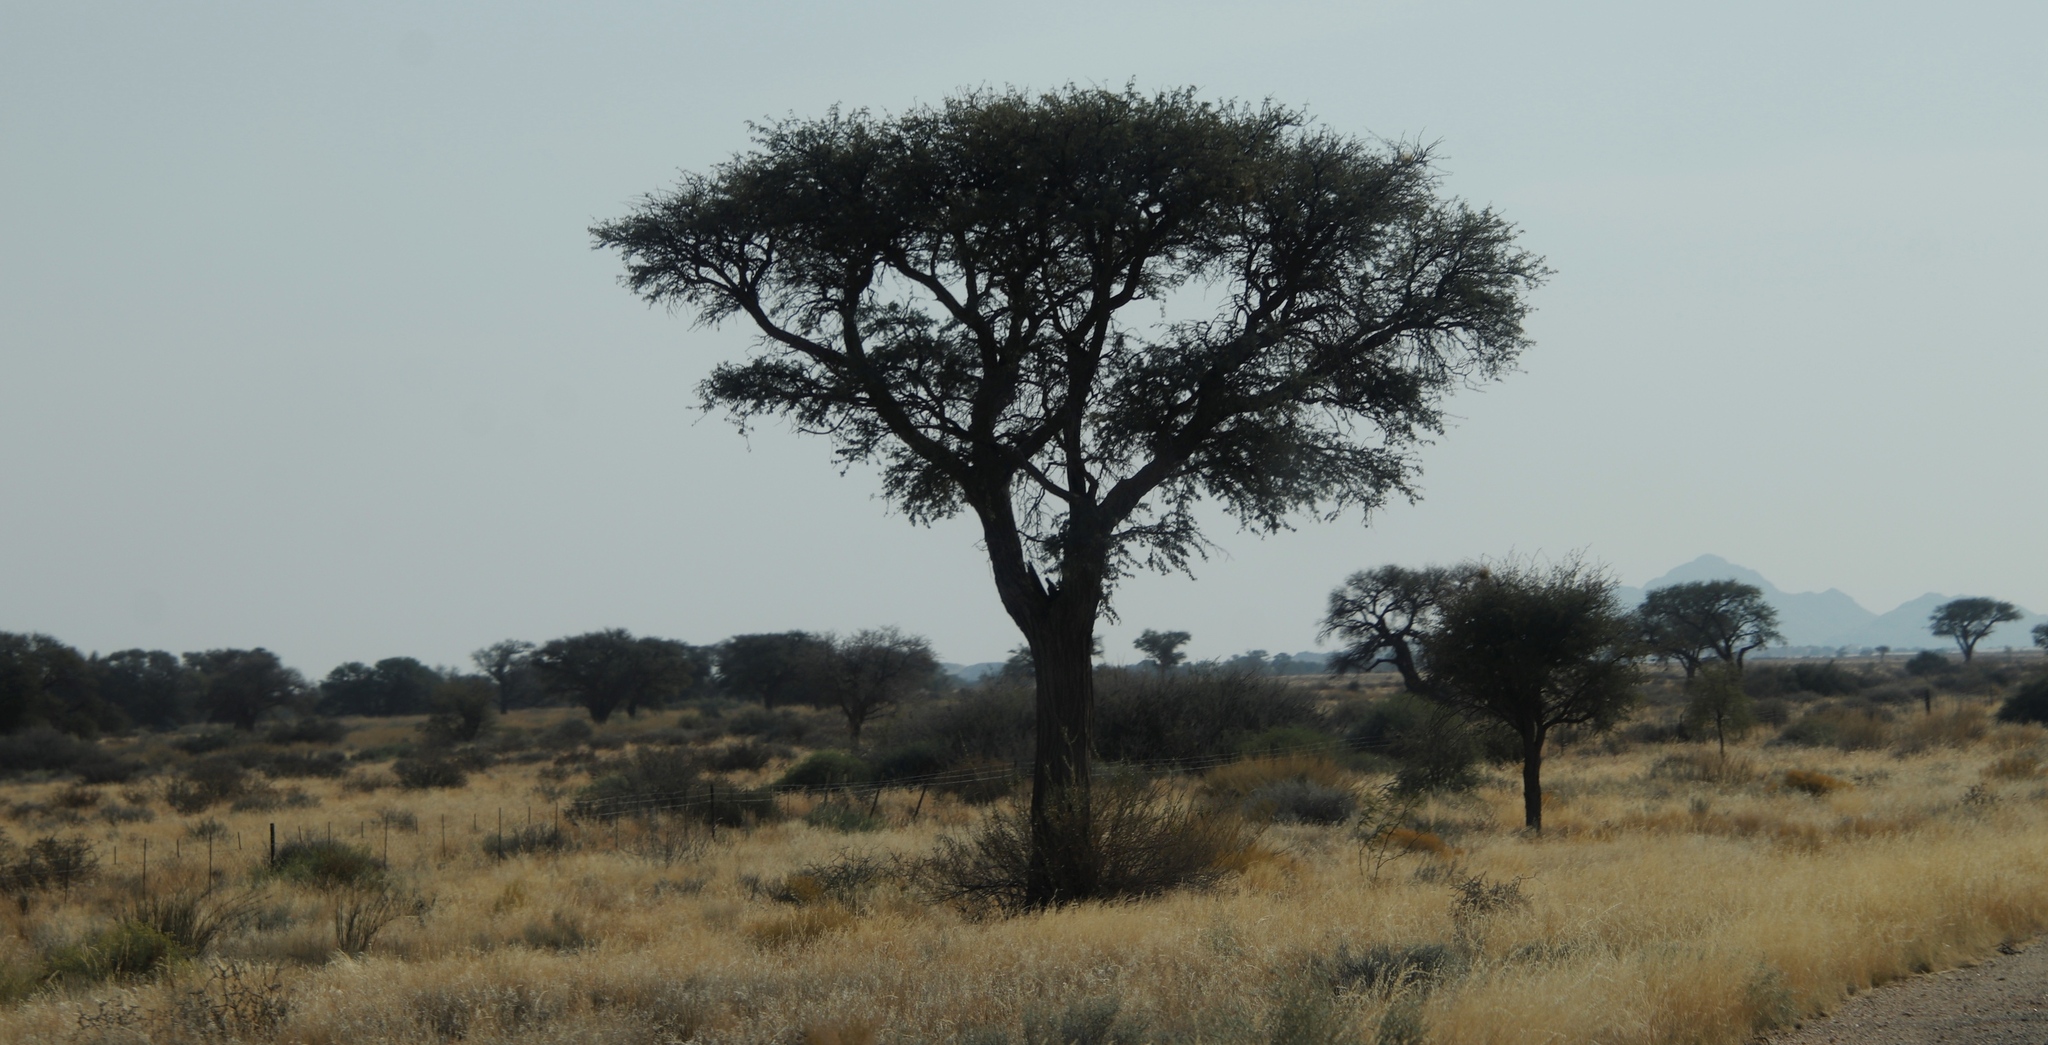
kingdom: Plantae
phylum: Tracheophyta
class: Magnoliopsida
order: Fabales
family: Fabaceae
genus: Vachellia
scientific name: Vachellia erioloba
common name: Camel thorn
